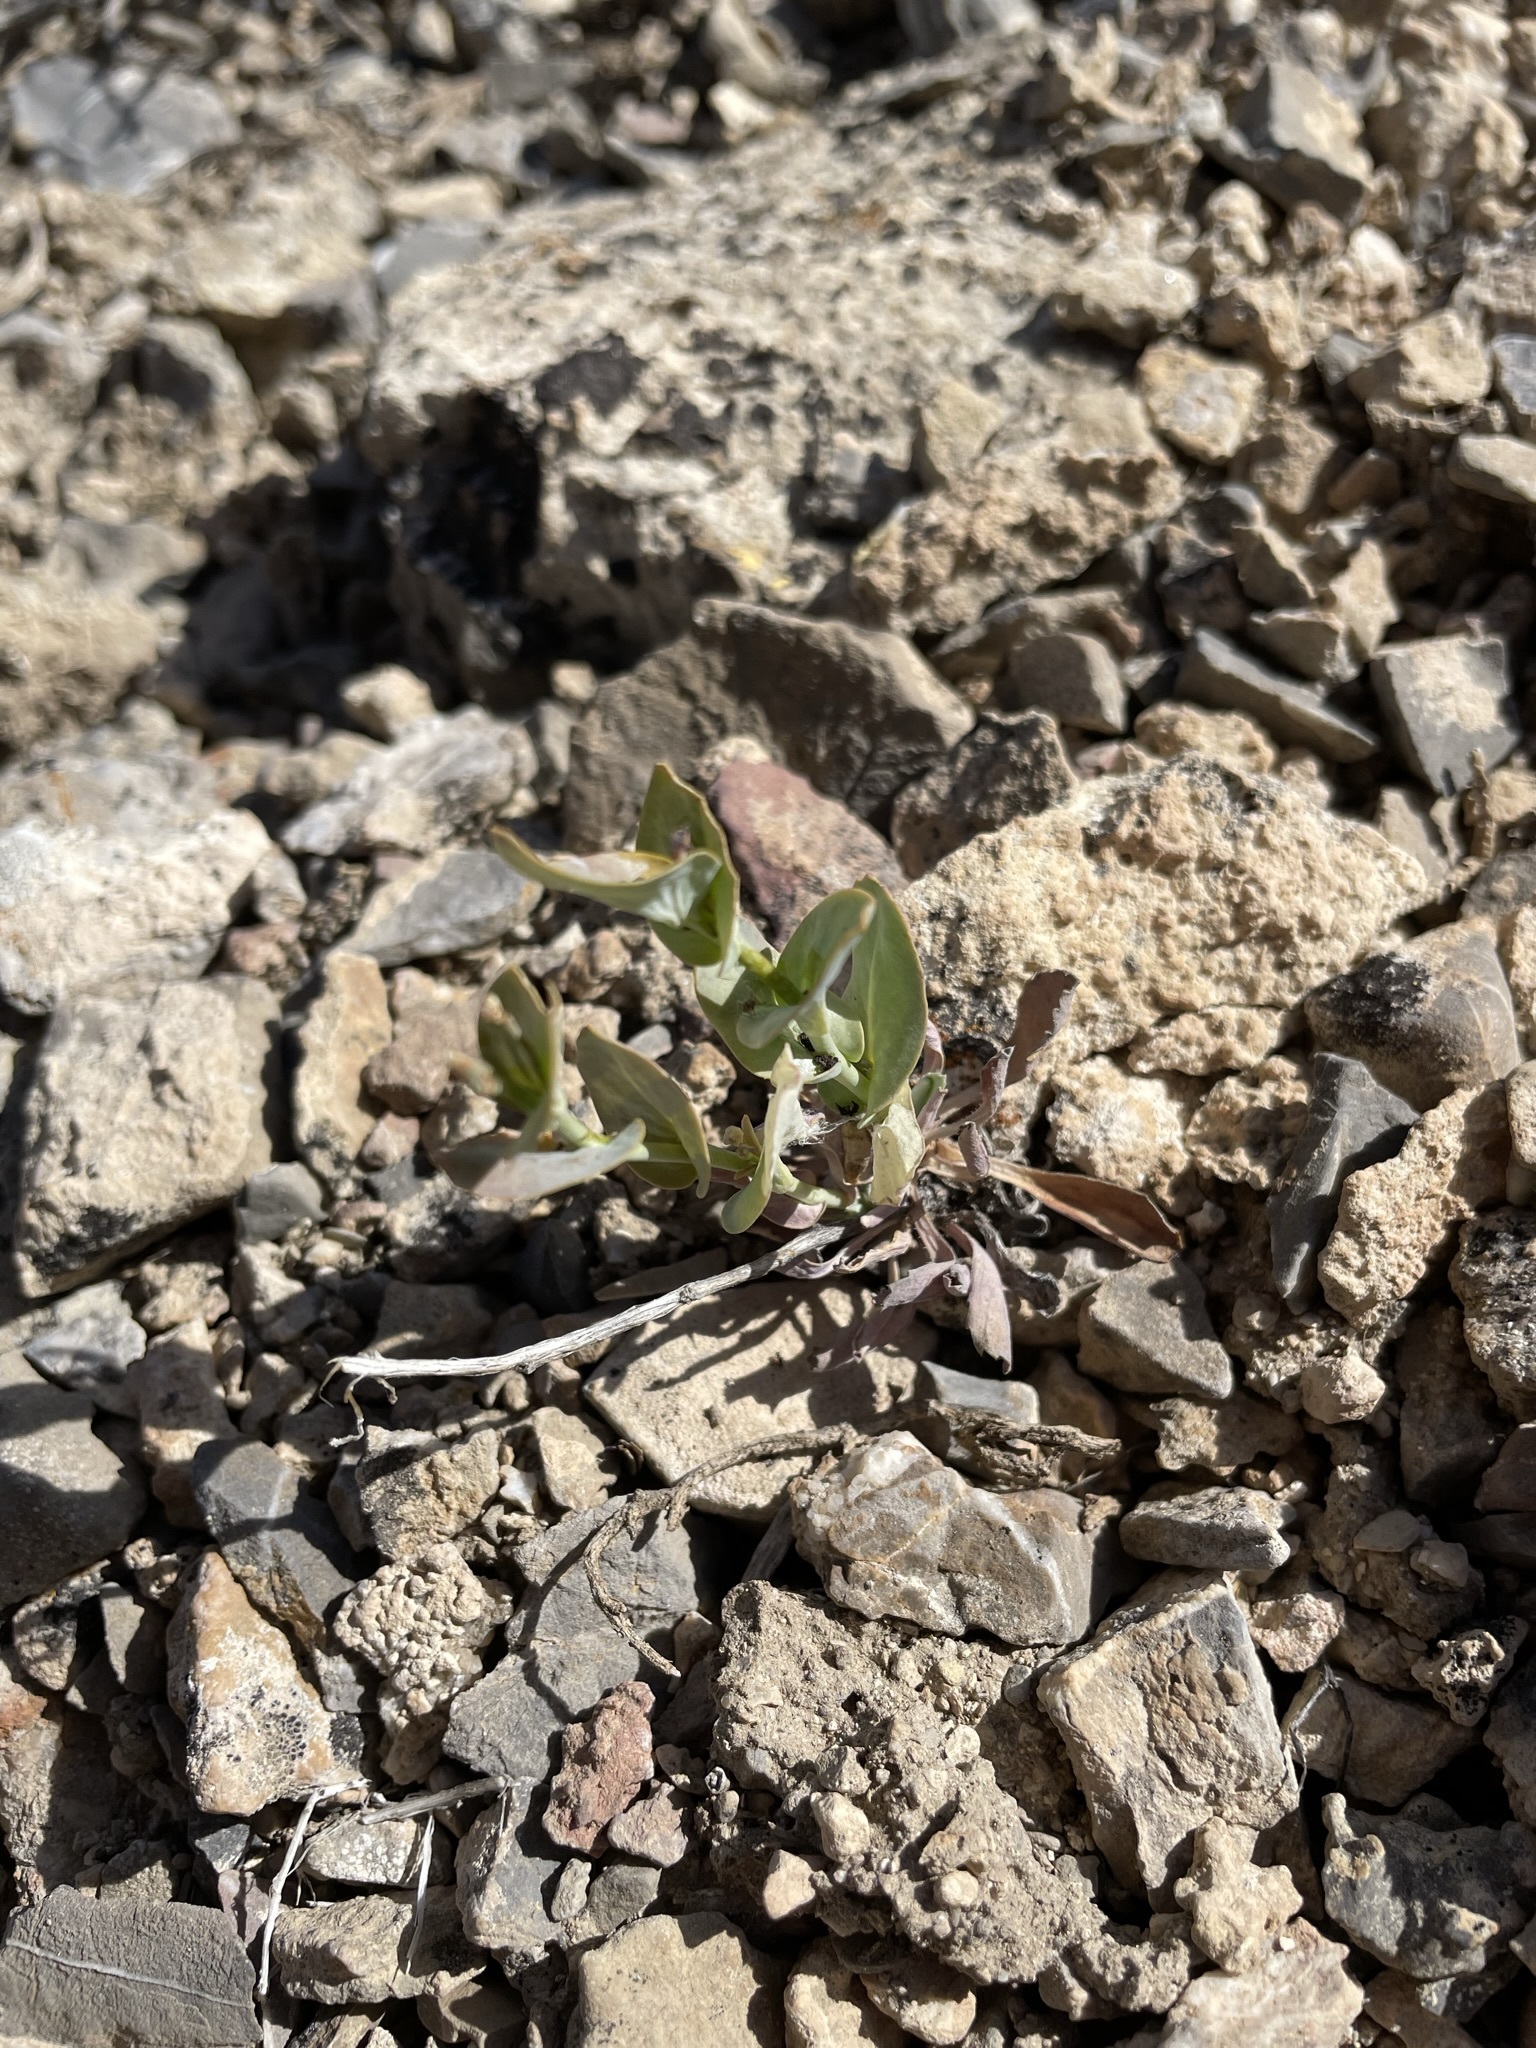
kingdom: Plantae
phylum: Tracheophyta
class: Magnoliopsida
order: Brassicales
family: Brassicaceae
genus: Streptanthus
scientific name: Streptanthus cordatus
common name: Heart-leaf jewel-flower
